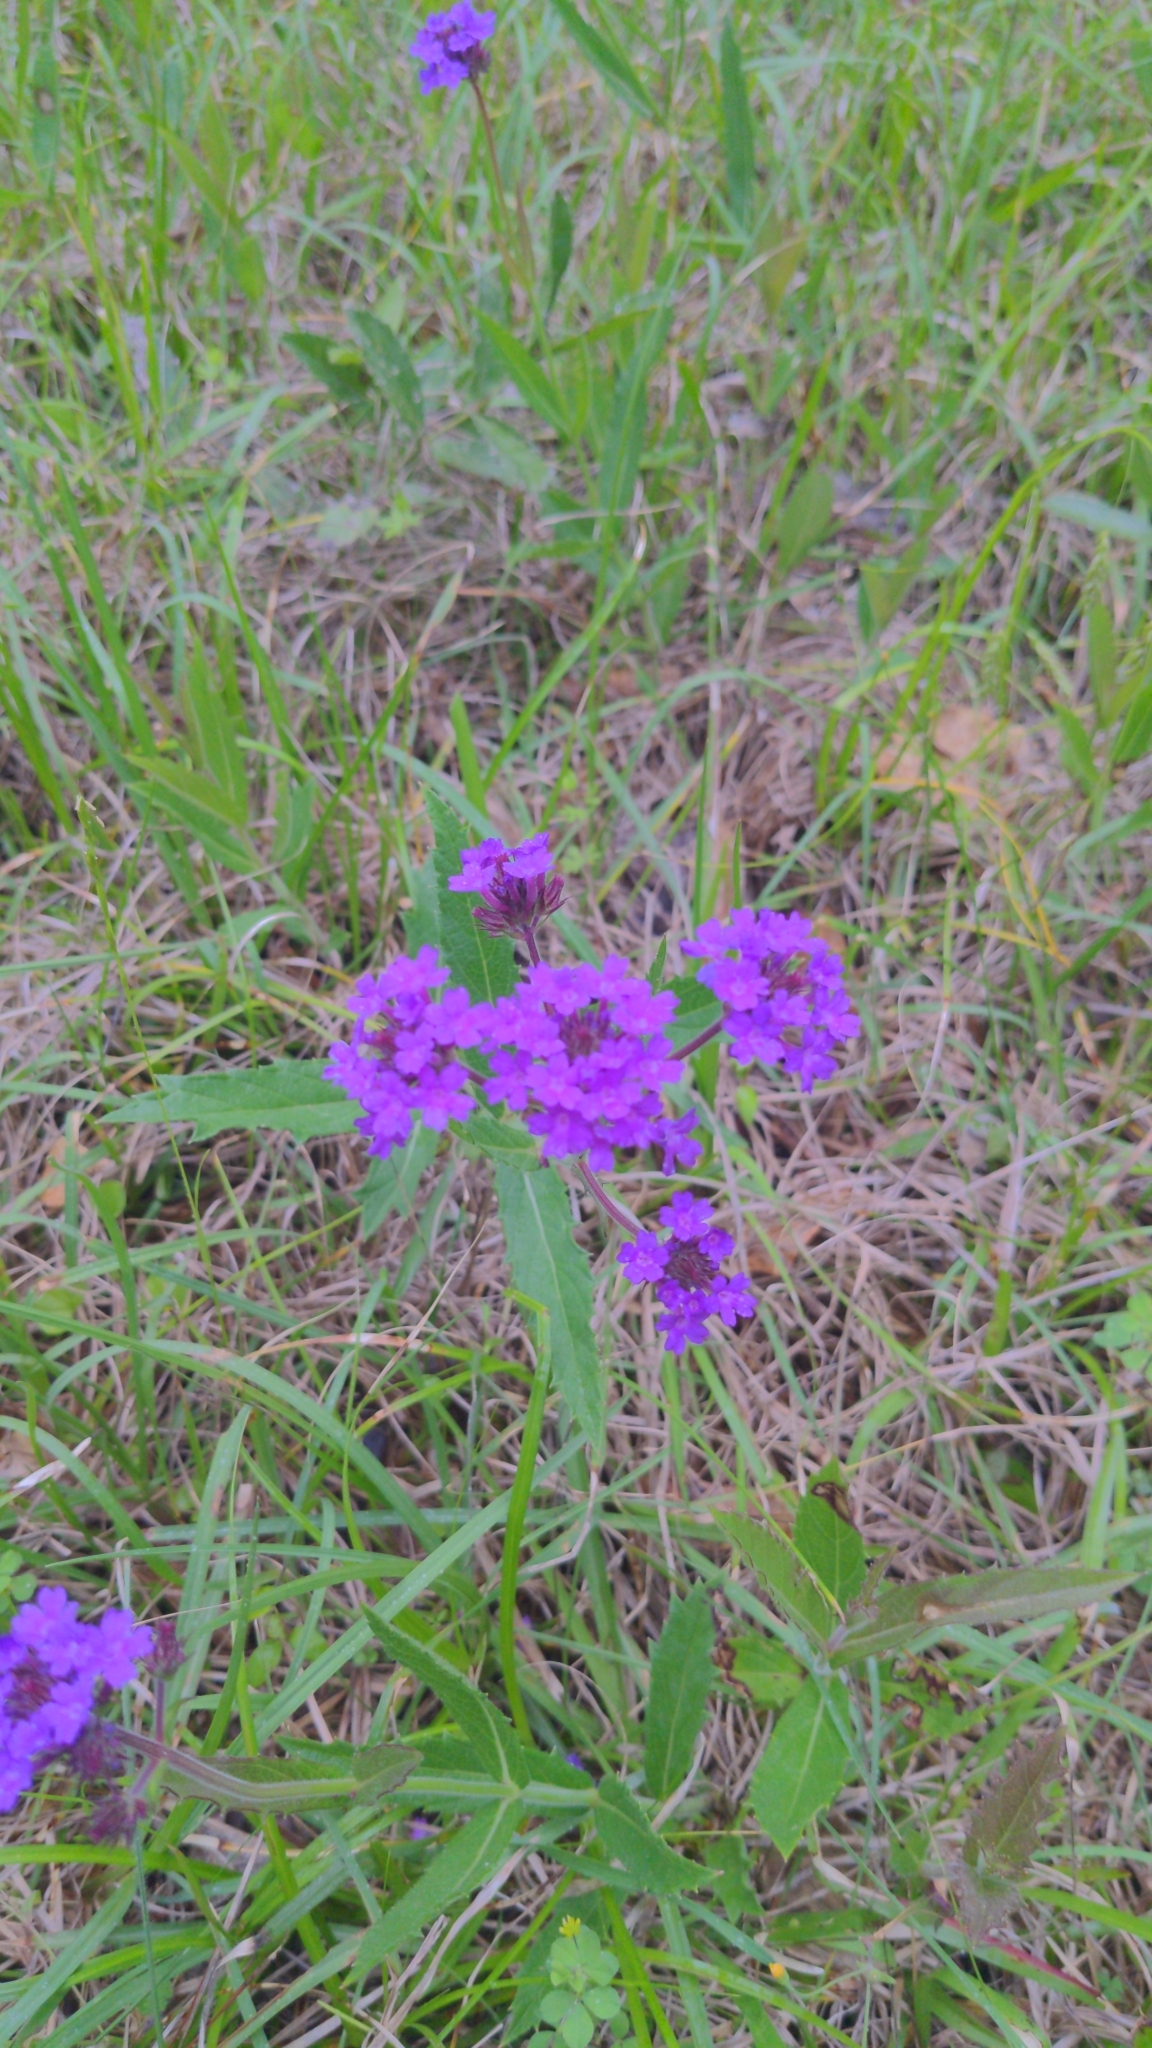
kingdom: Plantae
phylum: Tracheophyta
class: Magnoliopsida
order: Lamiales
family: Verbenaceae
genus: Verbena
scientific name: Verbena rigida
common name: Slender vervain
